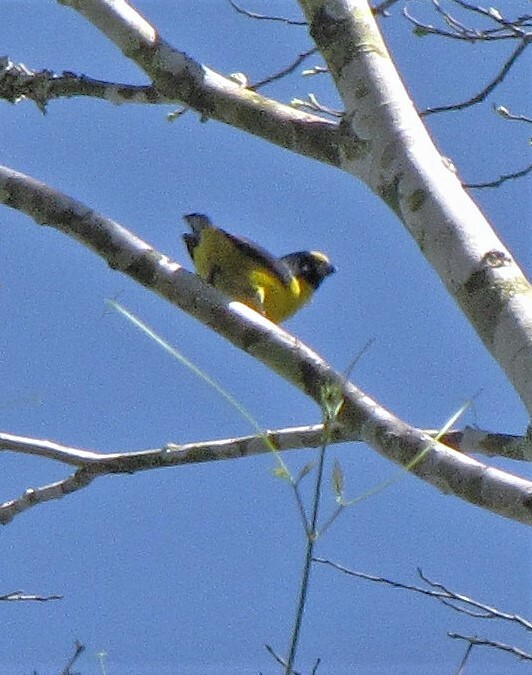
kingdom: Animalia
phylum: Chordata
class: Aves
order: Passeriformes
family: Fringillidae
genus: Euphonia
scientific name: Euphonia chalybea
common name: Green-chinned euphonia
